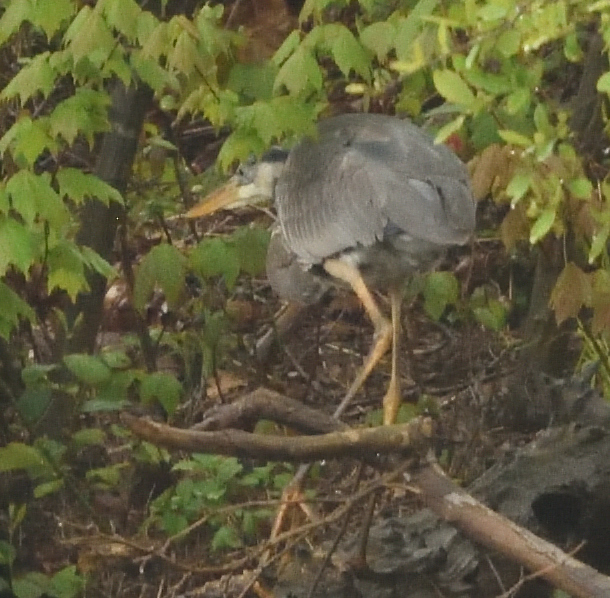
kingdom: Animalia
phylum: Chordata
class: Aves
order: Pelecaniformes
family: Ardeidae
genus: Ardea
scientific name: Ardea herodias
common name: Great blue heron
